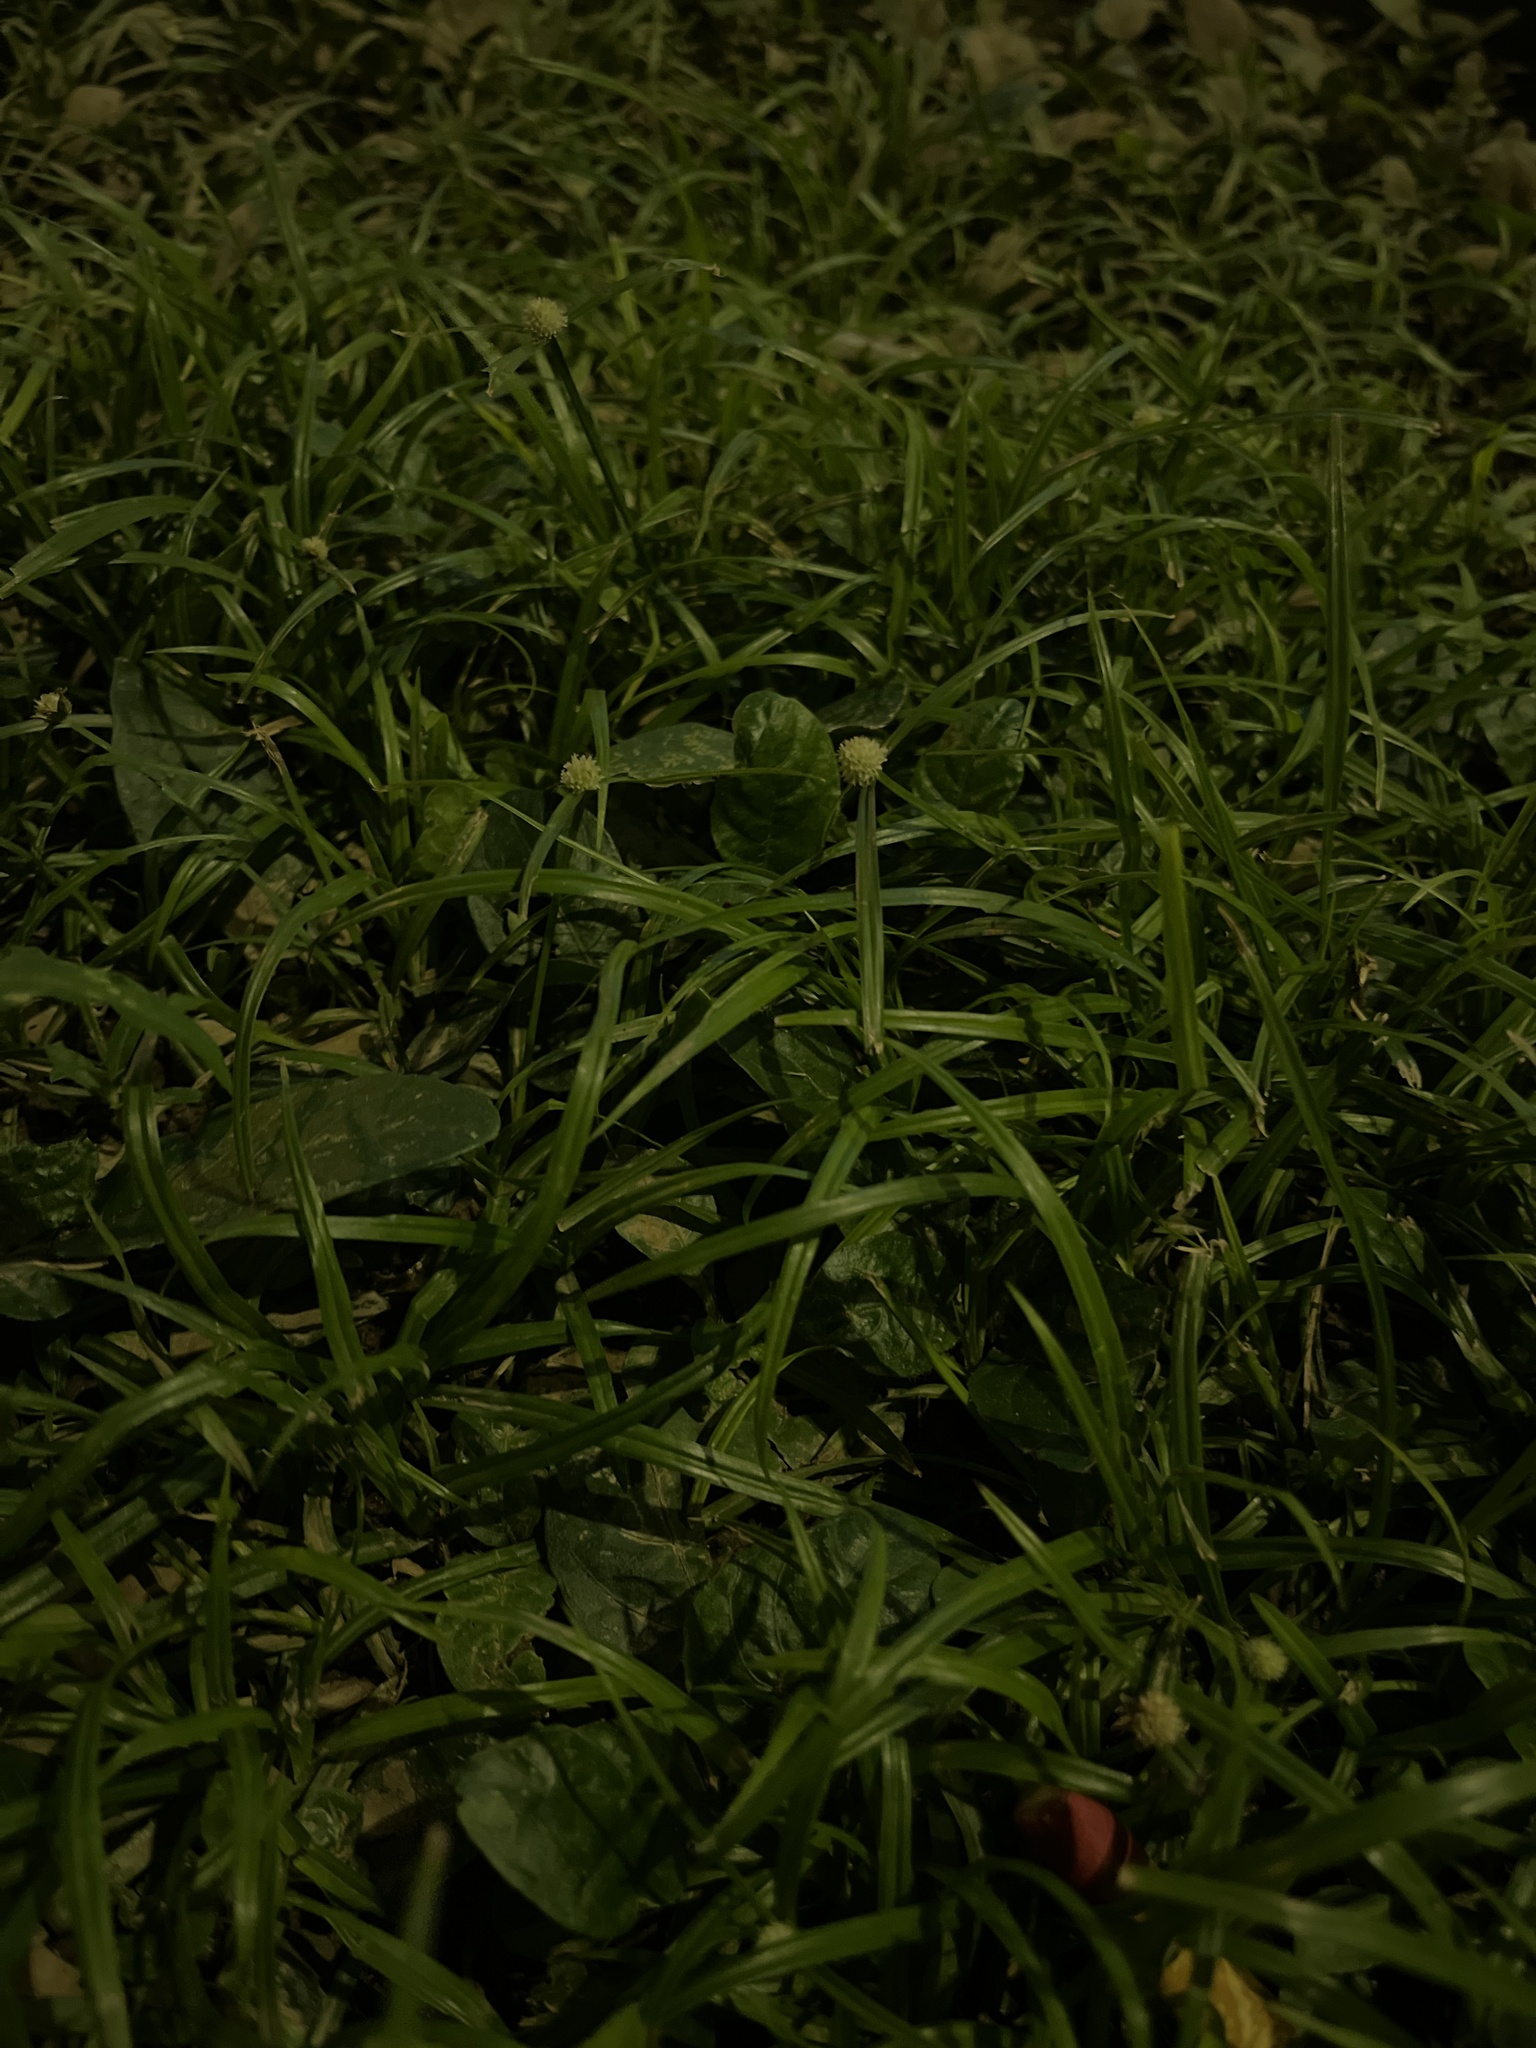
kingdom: Plantae
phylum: Tracheophyta
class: Liliopsida
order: Poales
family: Cyperaceae
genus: Cyperus
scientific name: Cyperus mindorensis
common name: Flatsedge
